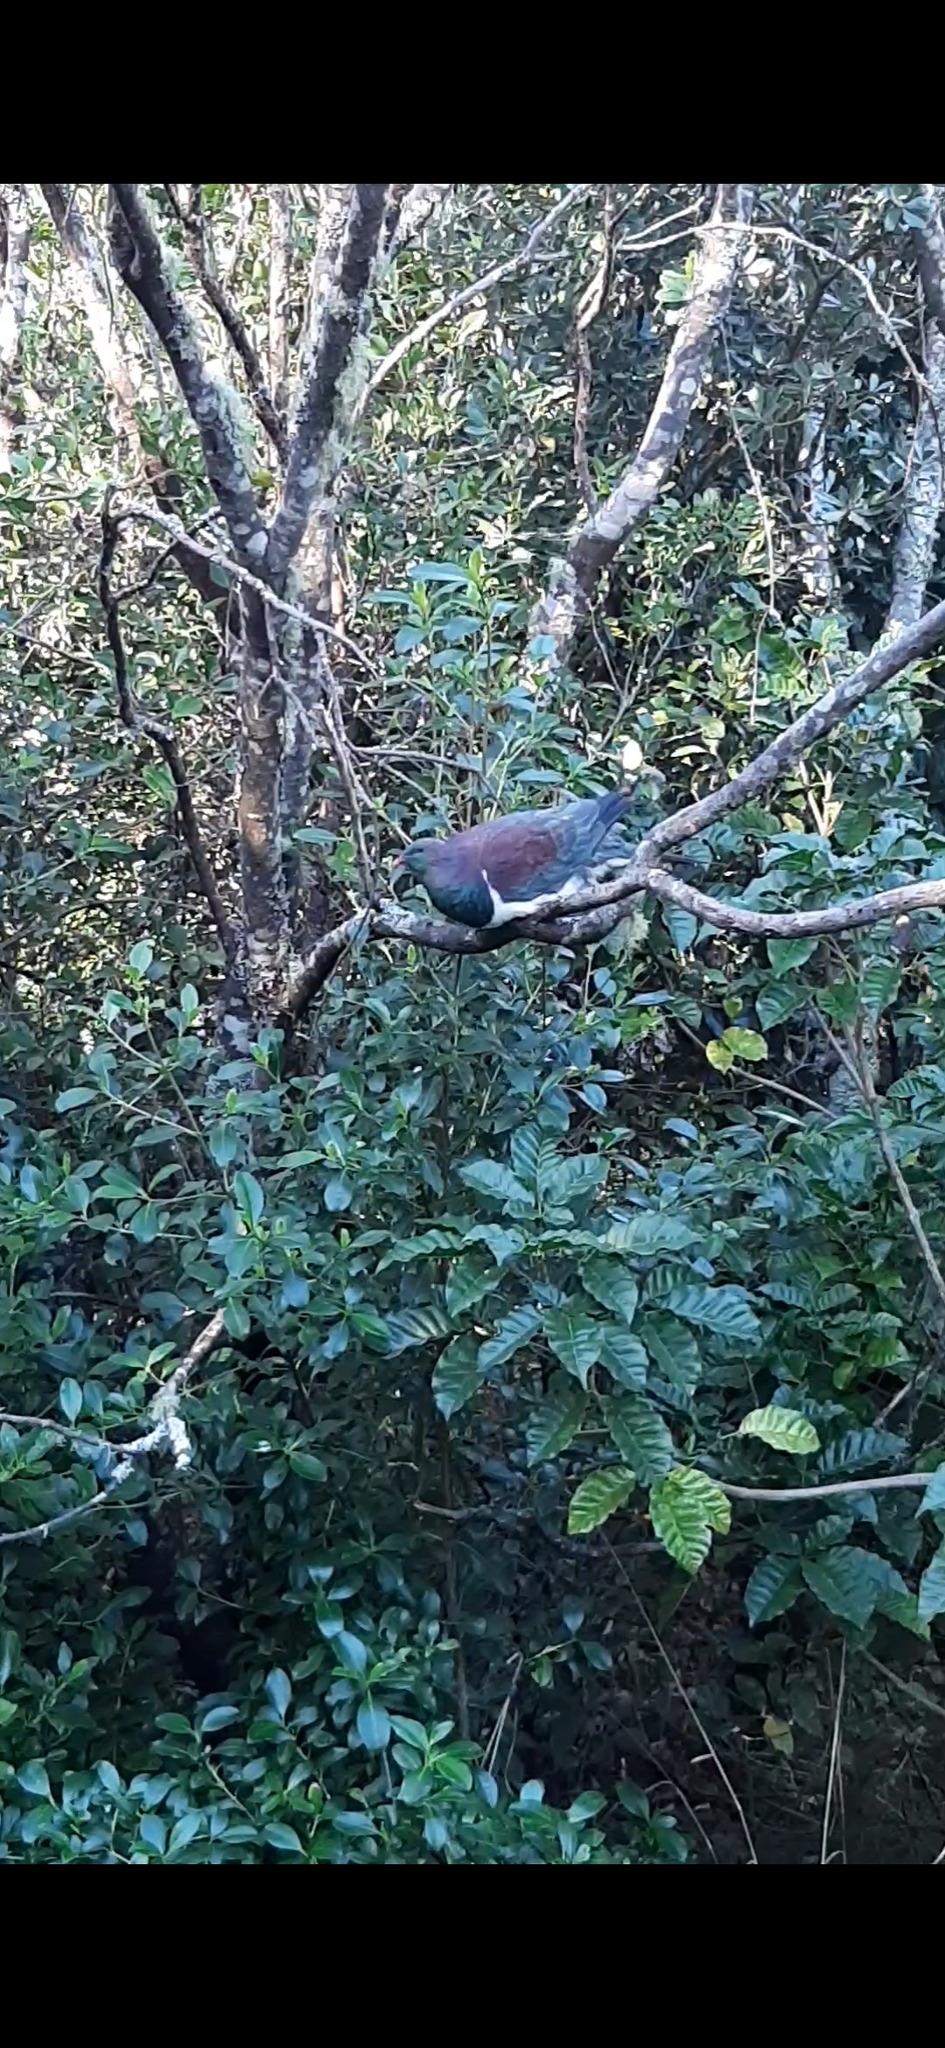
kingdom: Animalia
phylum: Chordata
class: Aves
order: Columbiformes
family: Columbidae
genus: Hemiphaga
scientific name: Hemiphaga novaeseelandiae
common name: New zealand pigeon
